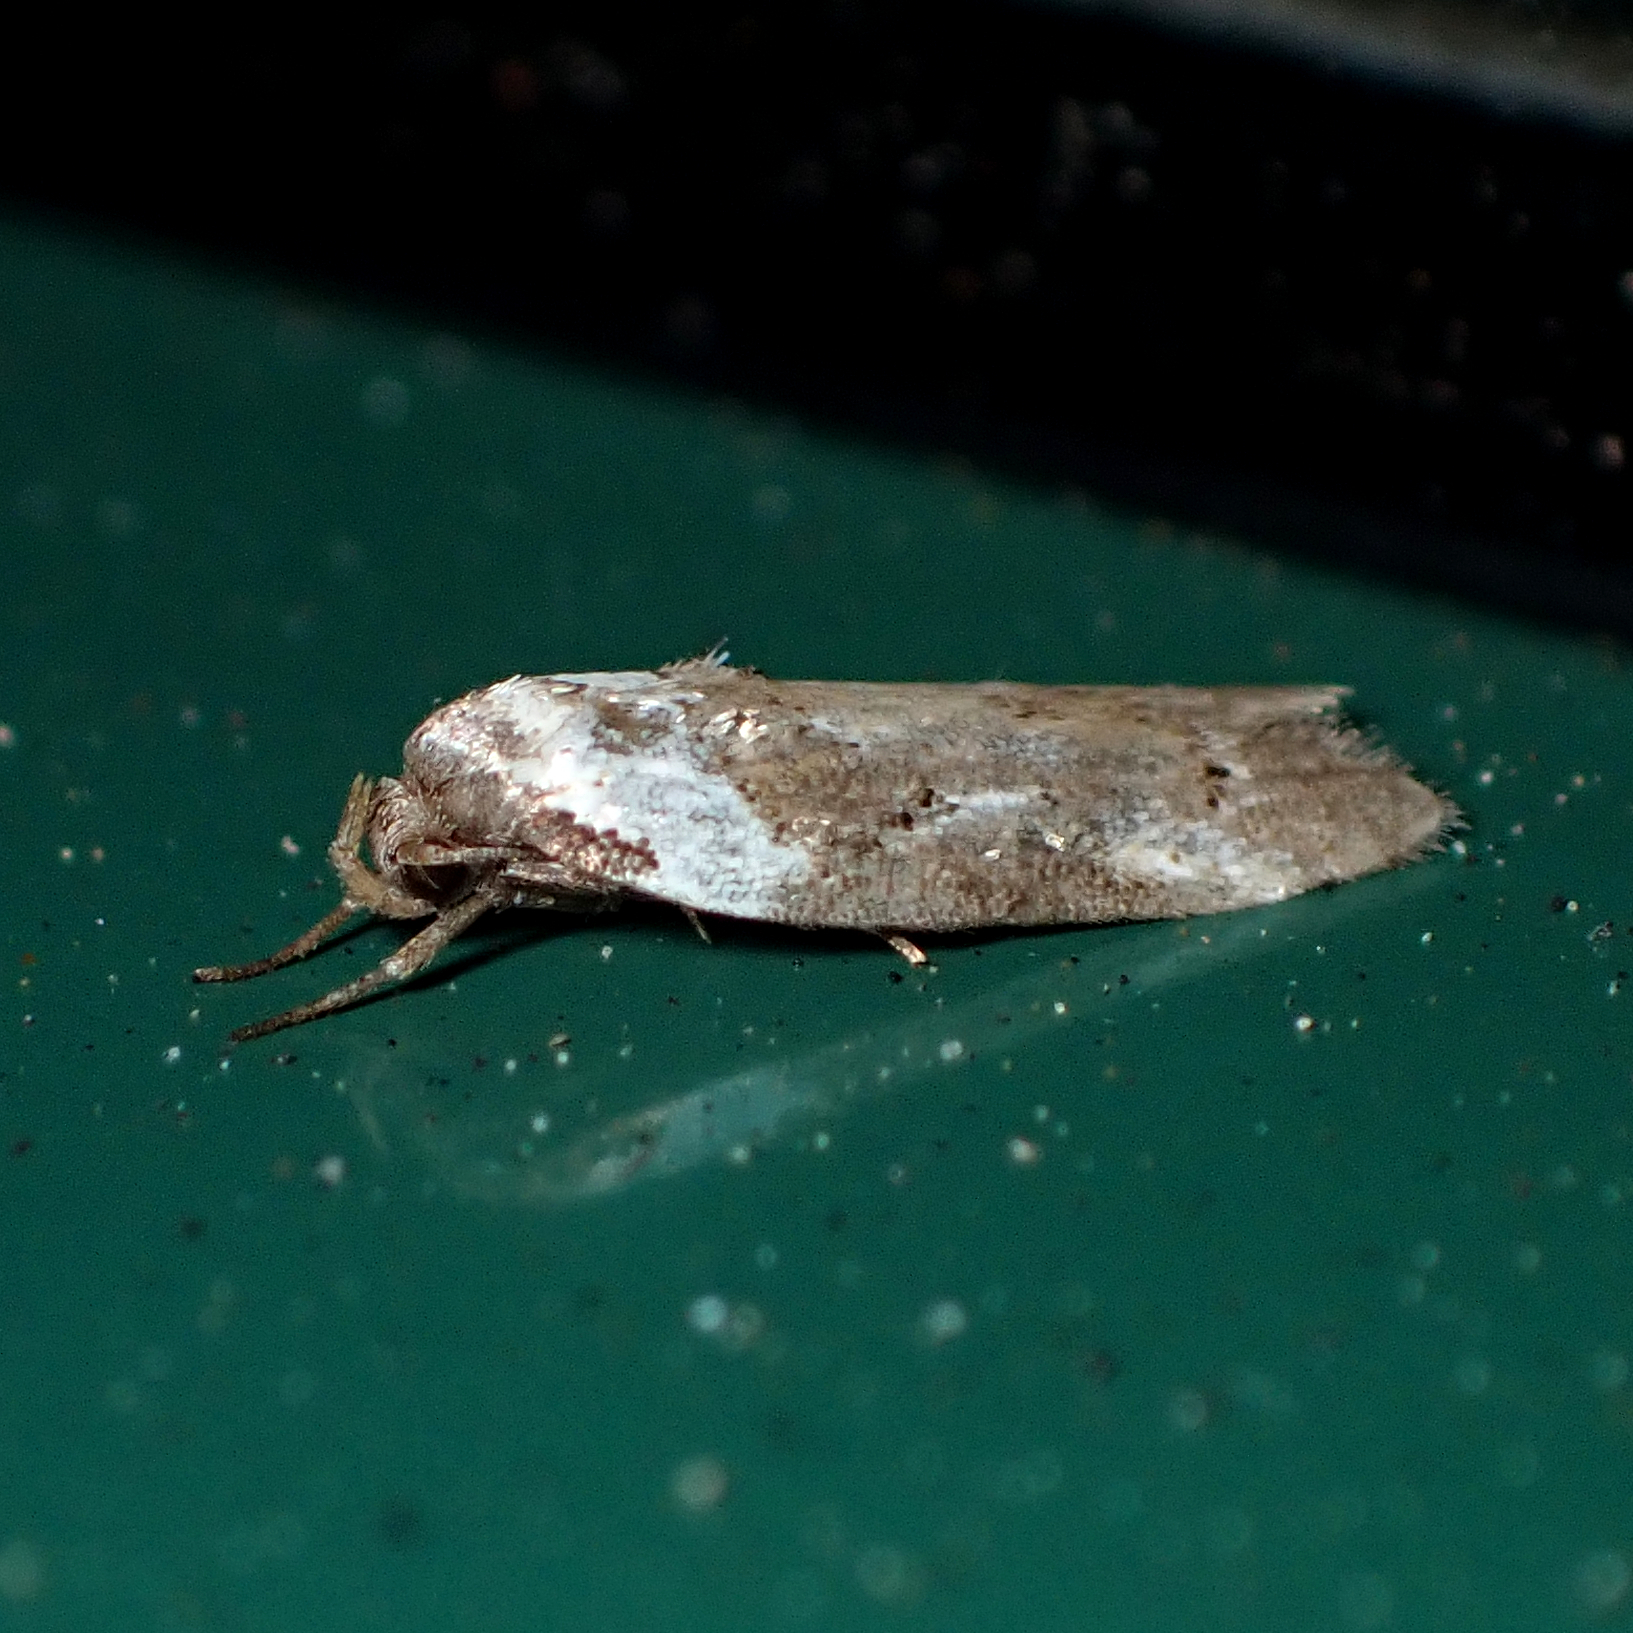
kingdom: Animalia
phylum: Arthropoda
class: Insecta
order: Lepidoptera
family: Oecophoridae
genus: Trachypepla
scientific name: Trachypepla conspicuella
